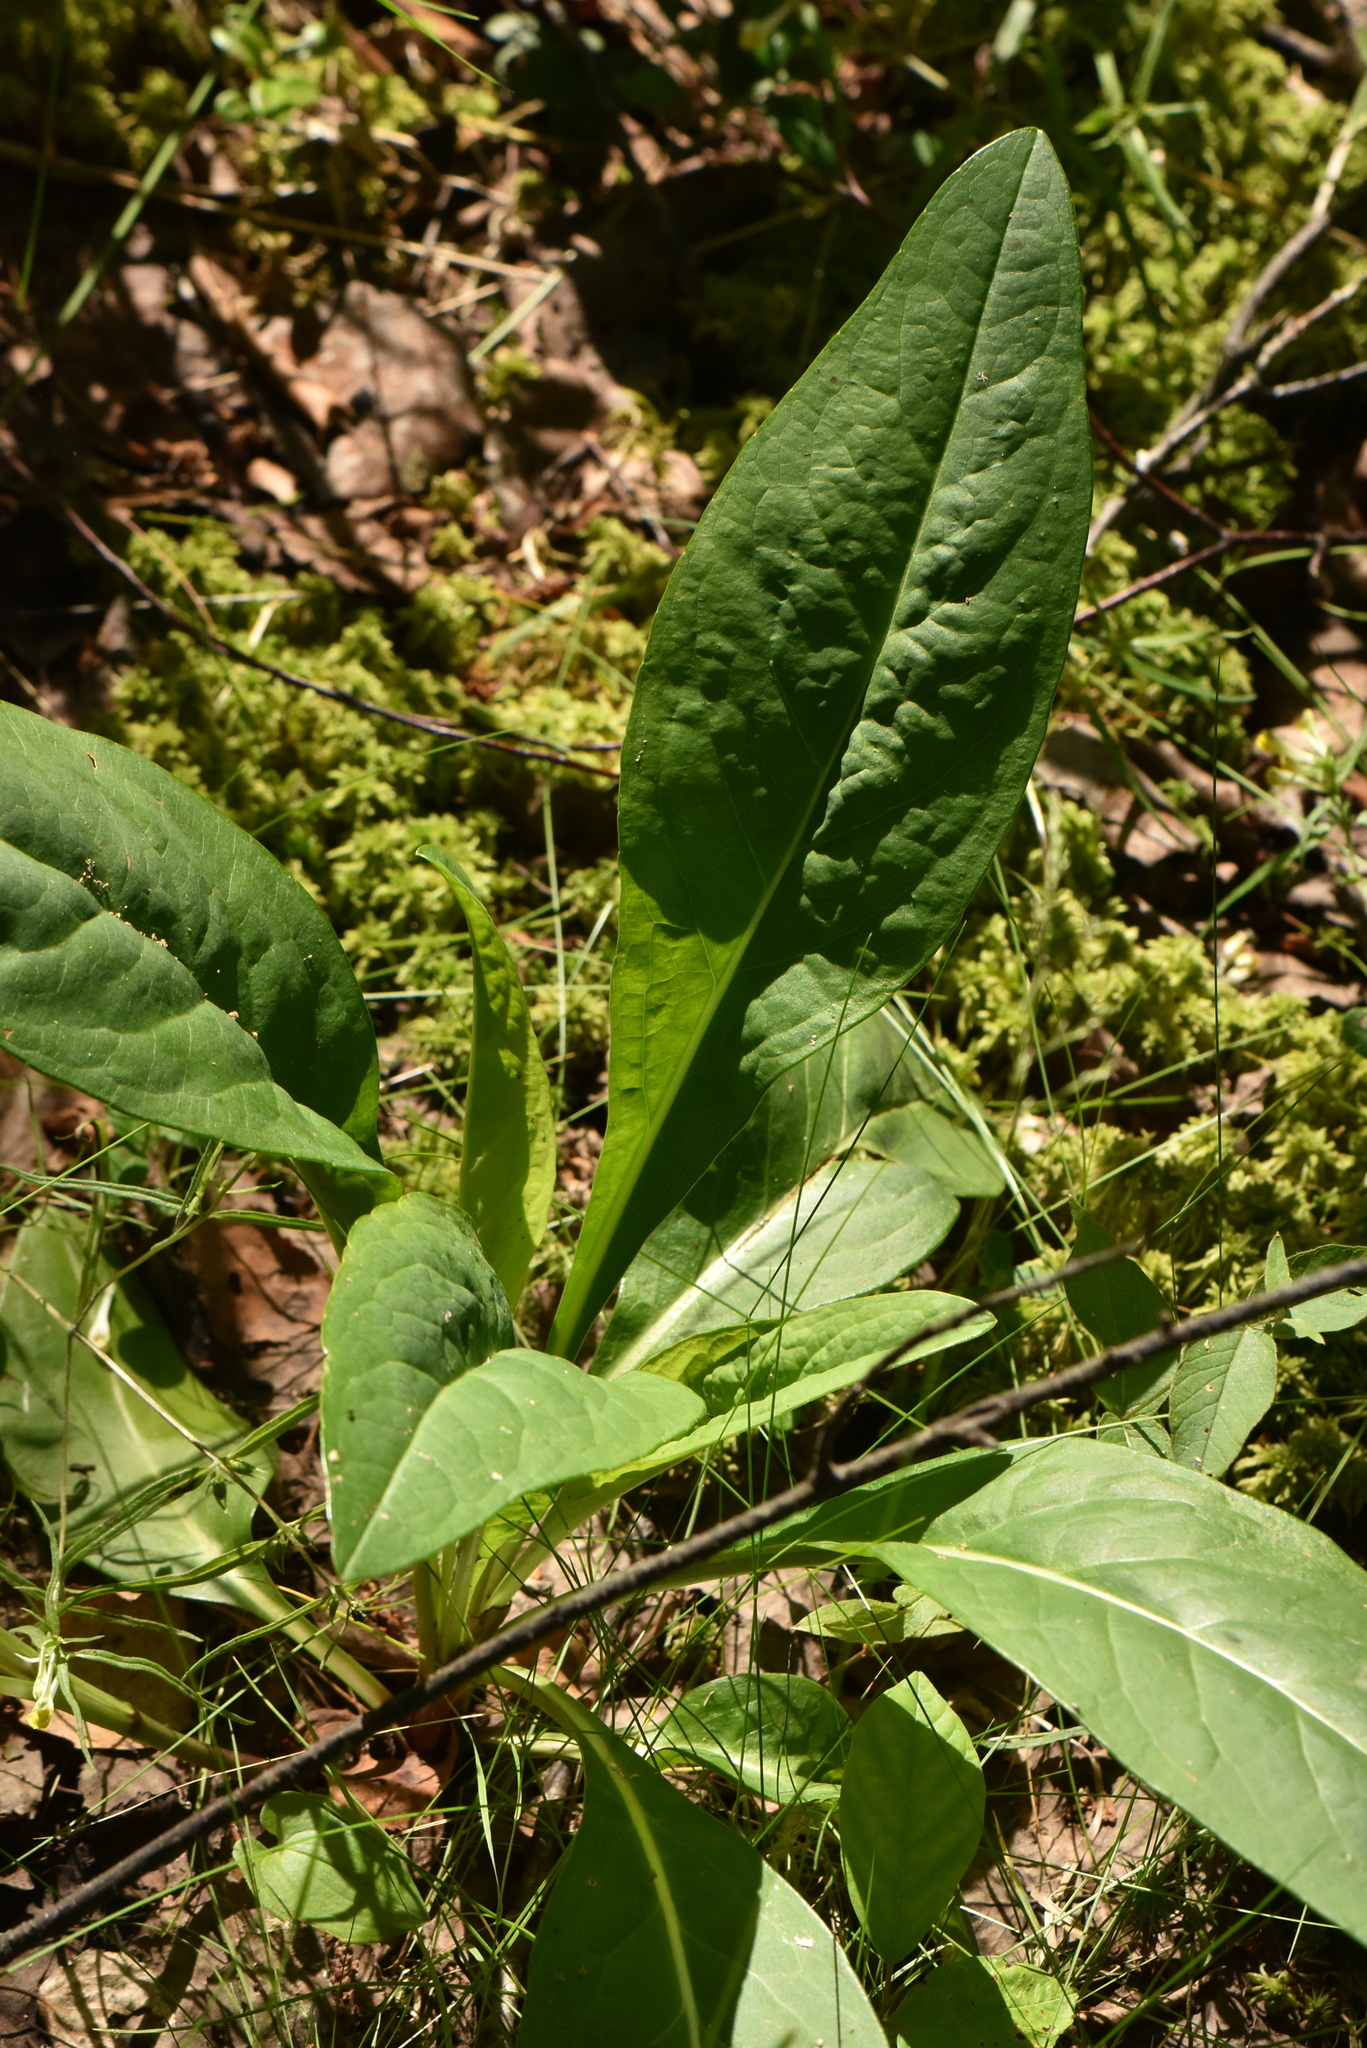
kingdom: Plantae
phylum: Tracheophyta
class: Magnoliopsida
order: Dipsacales
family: Caprifoliaceae
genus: Succisa
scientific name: Succisa pratensis
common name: Devil's-bit
